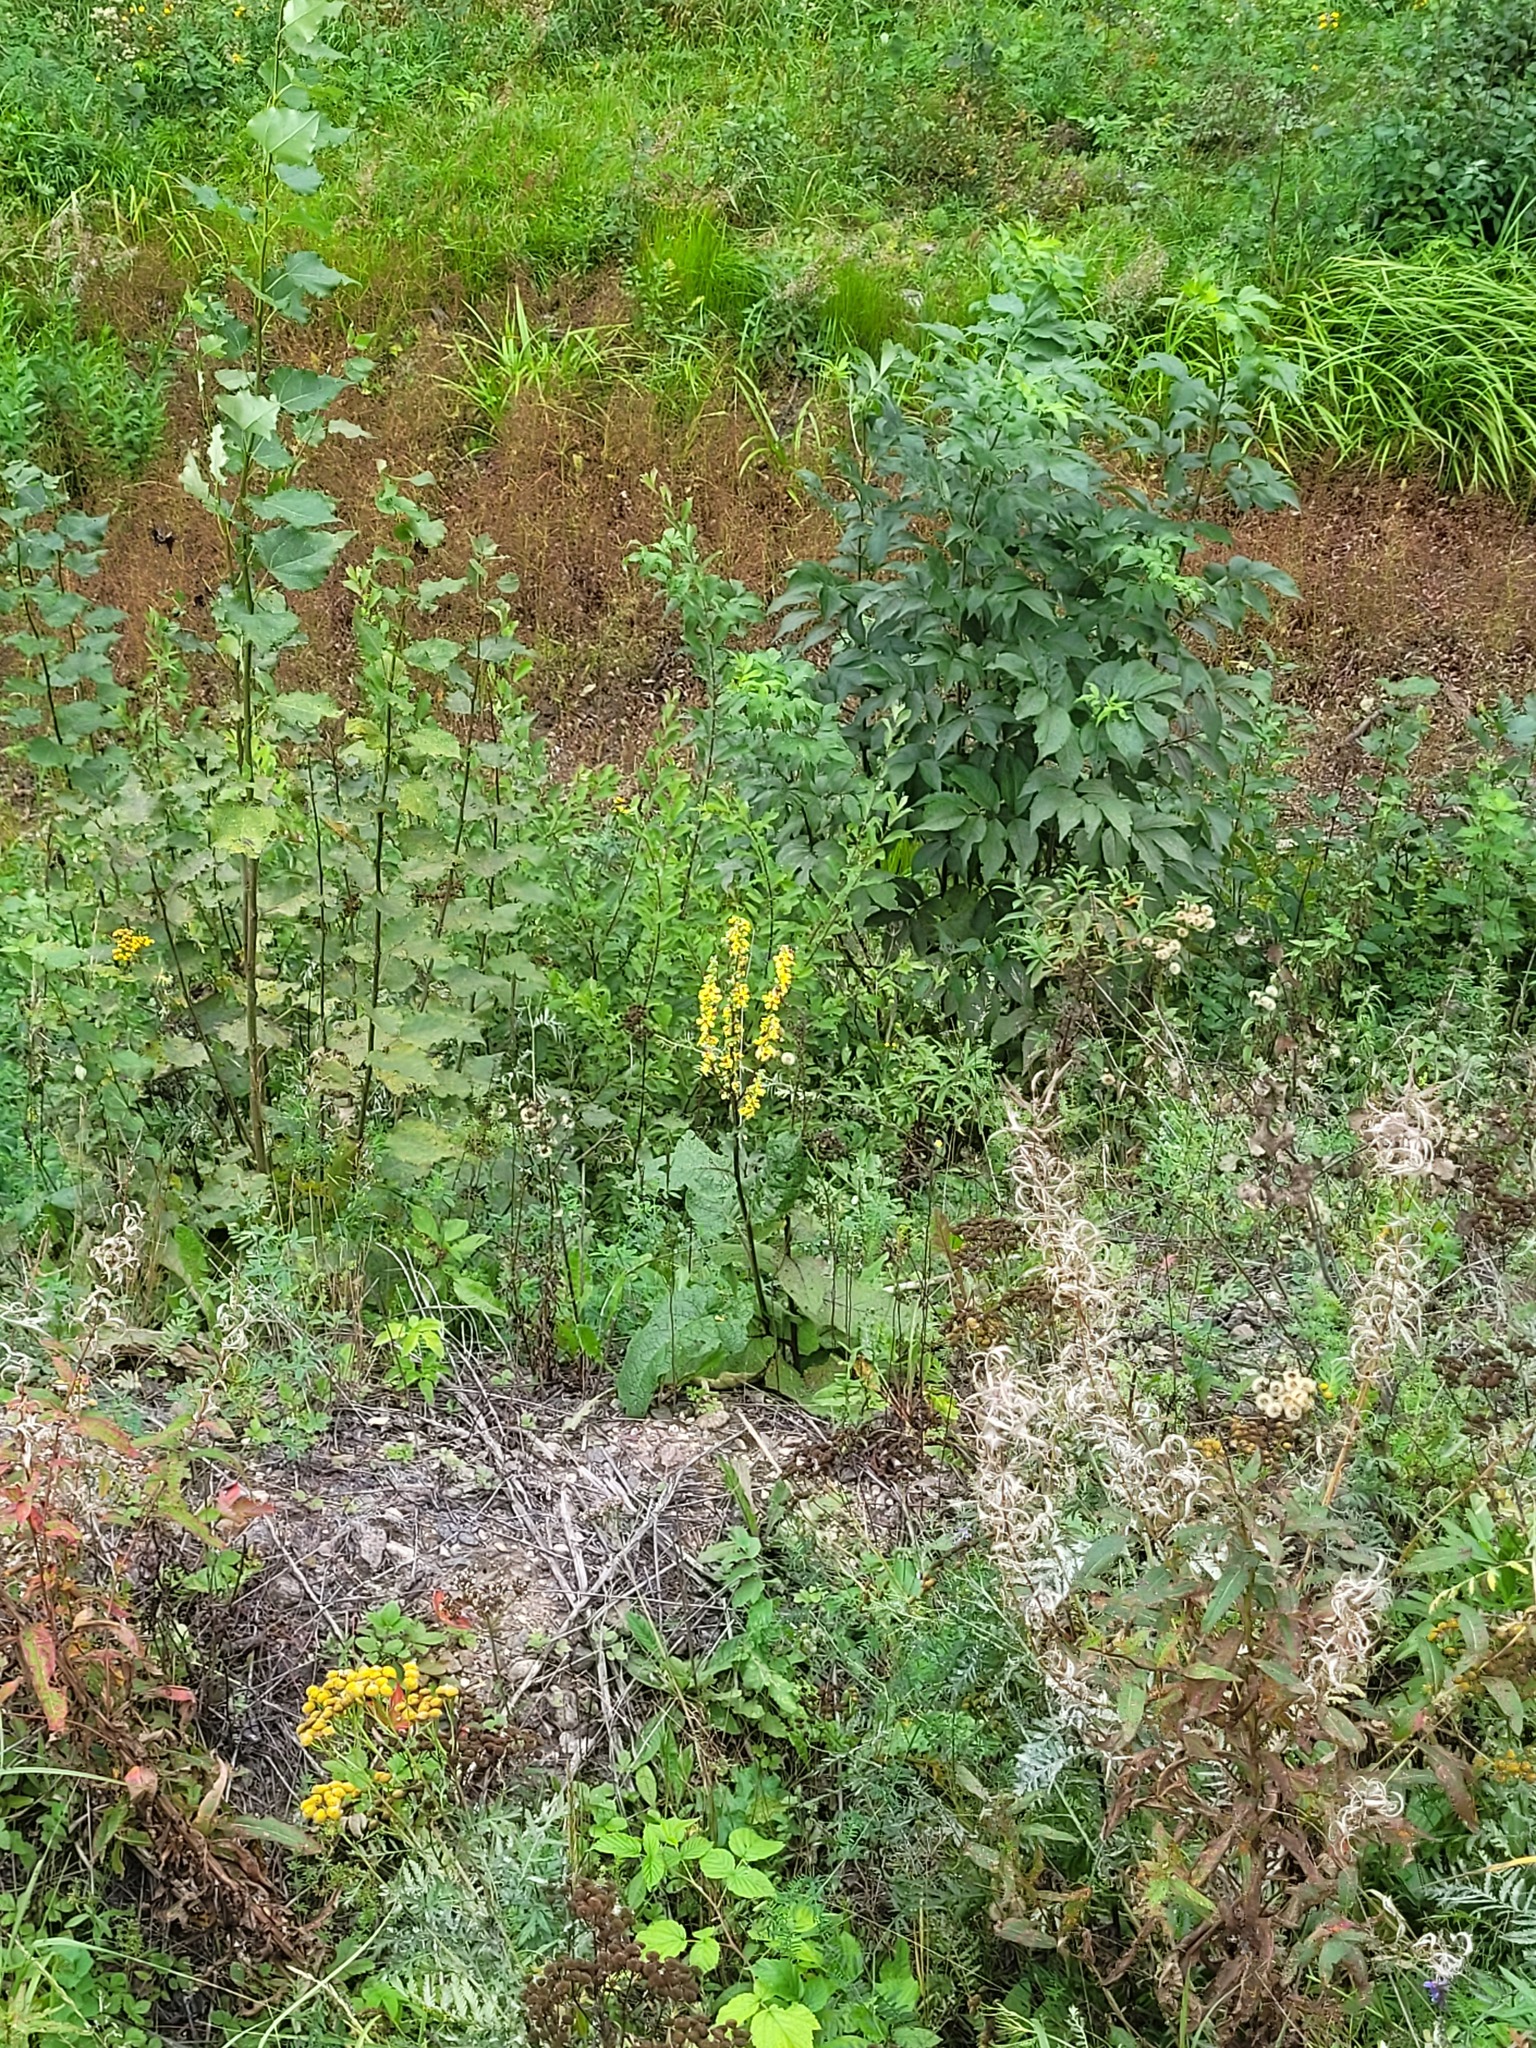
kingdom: Plantae
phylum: Tracheophyta
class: Magnoliopsida
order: Lamiales
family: Scrophulariaceae
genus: Verbascum
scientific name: Verbascum nigrum
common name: Dark mullein
